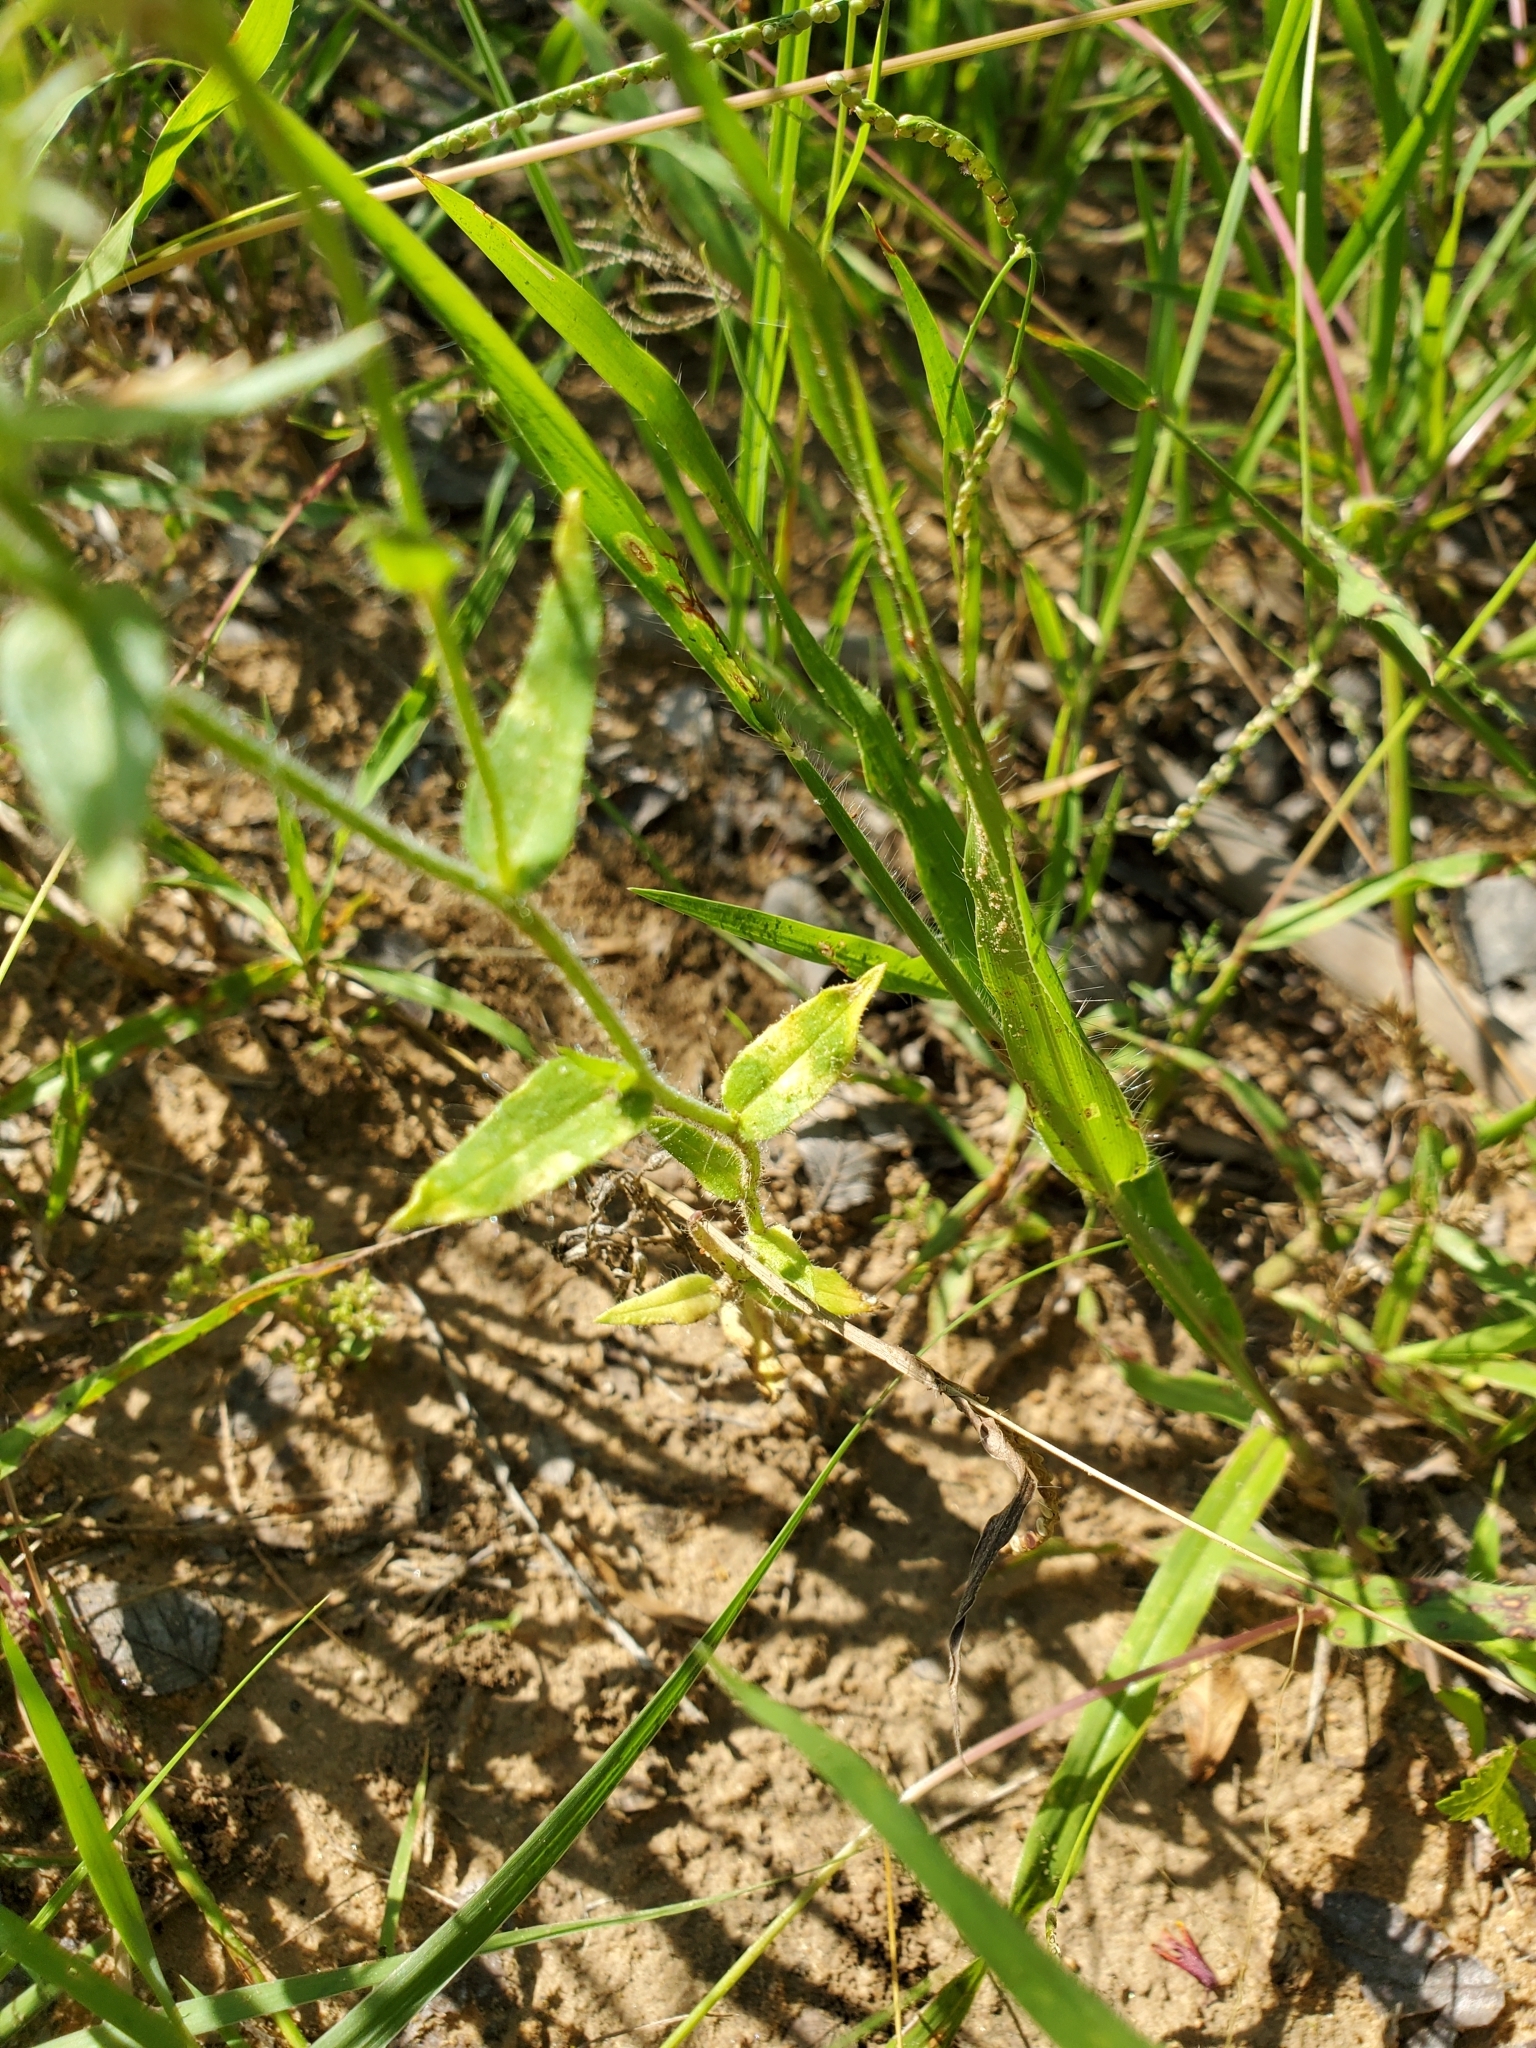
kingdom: Plantae
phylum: Tracheophyta
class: Magnoliopsida
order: Ericales
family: Polemoniaceae
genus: Phlox
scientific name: Phlox drummondii
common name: Drummond's phlox
